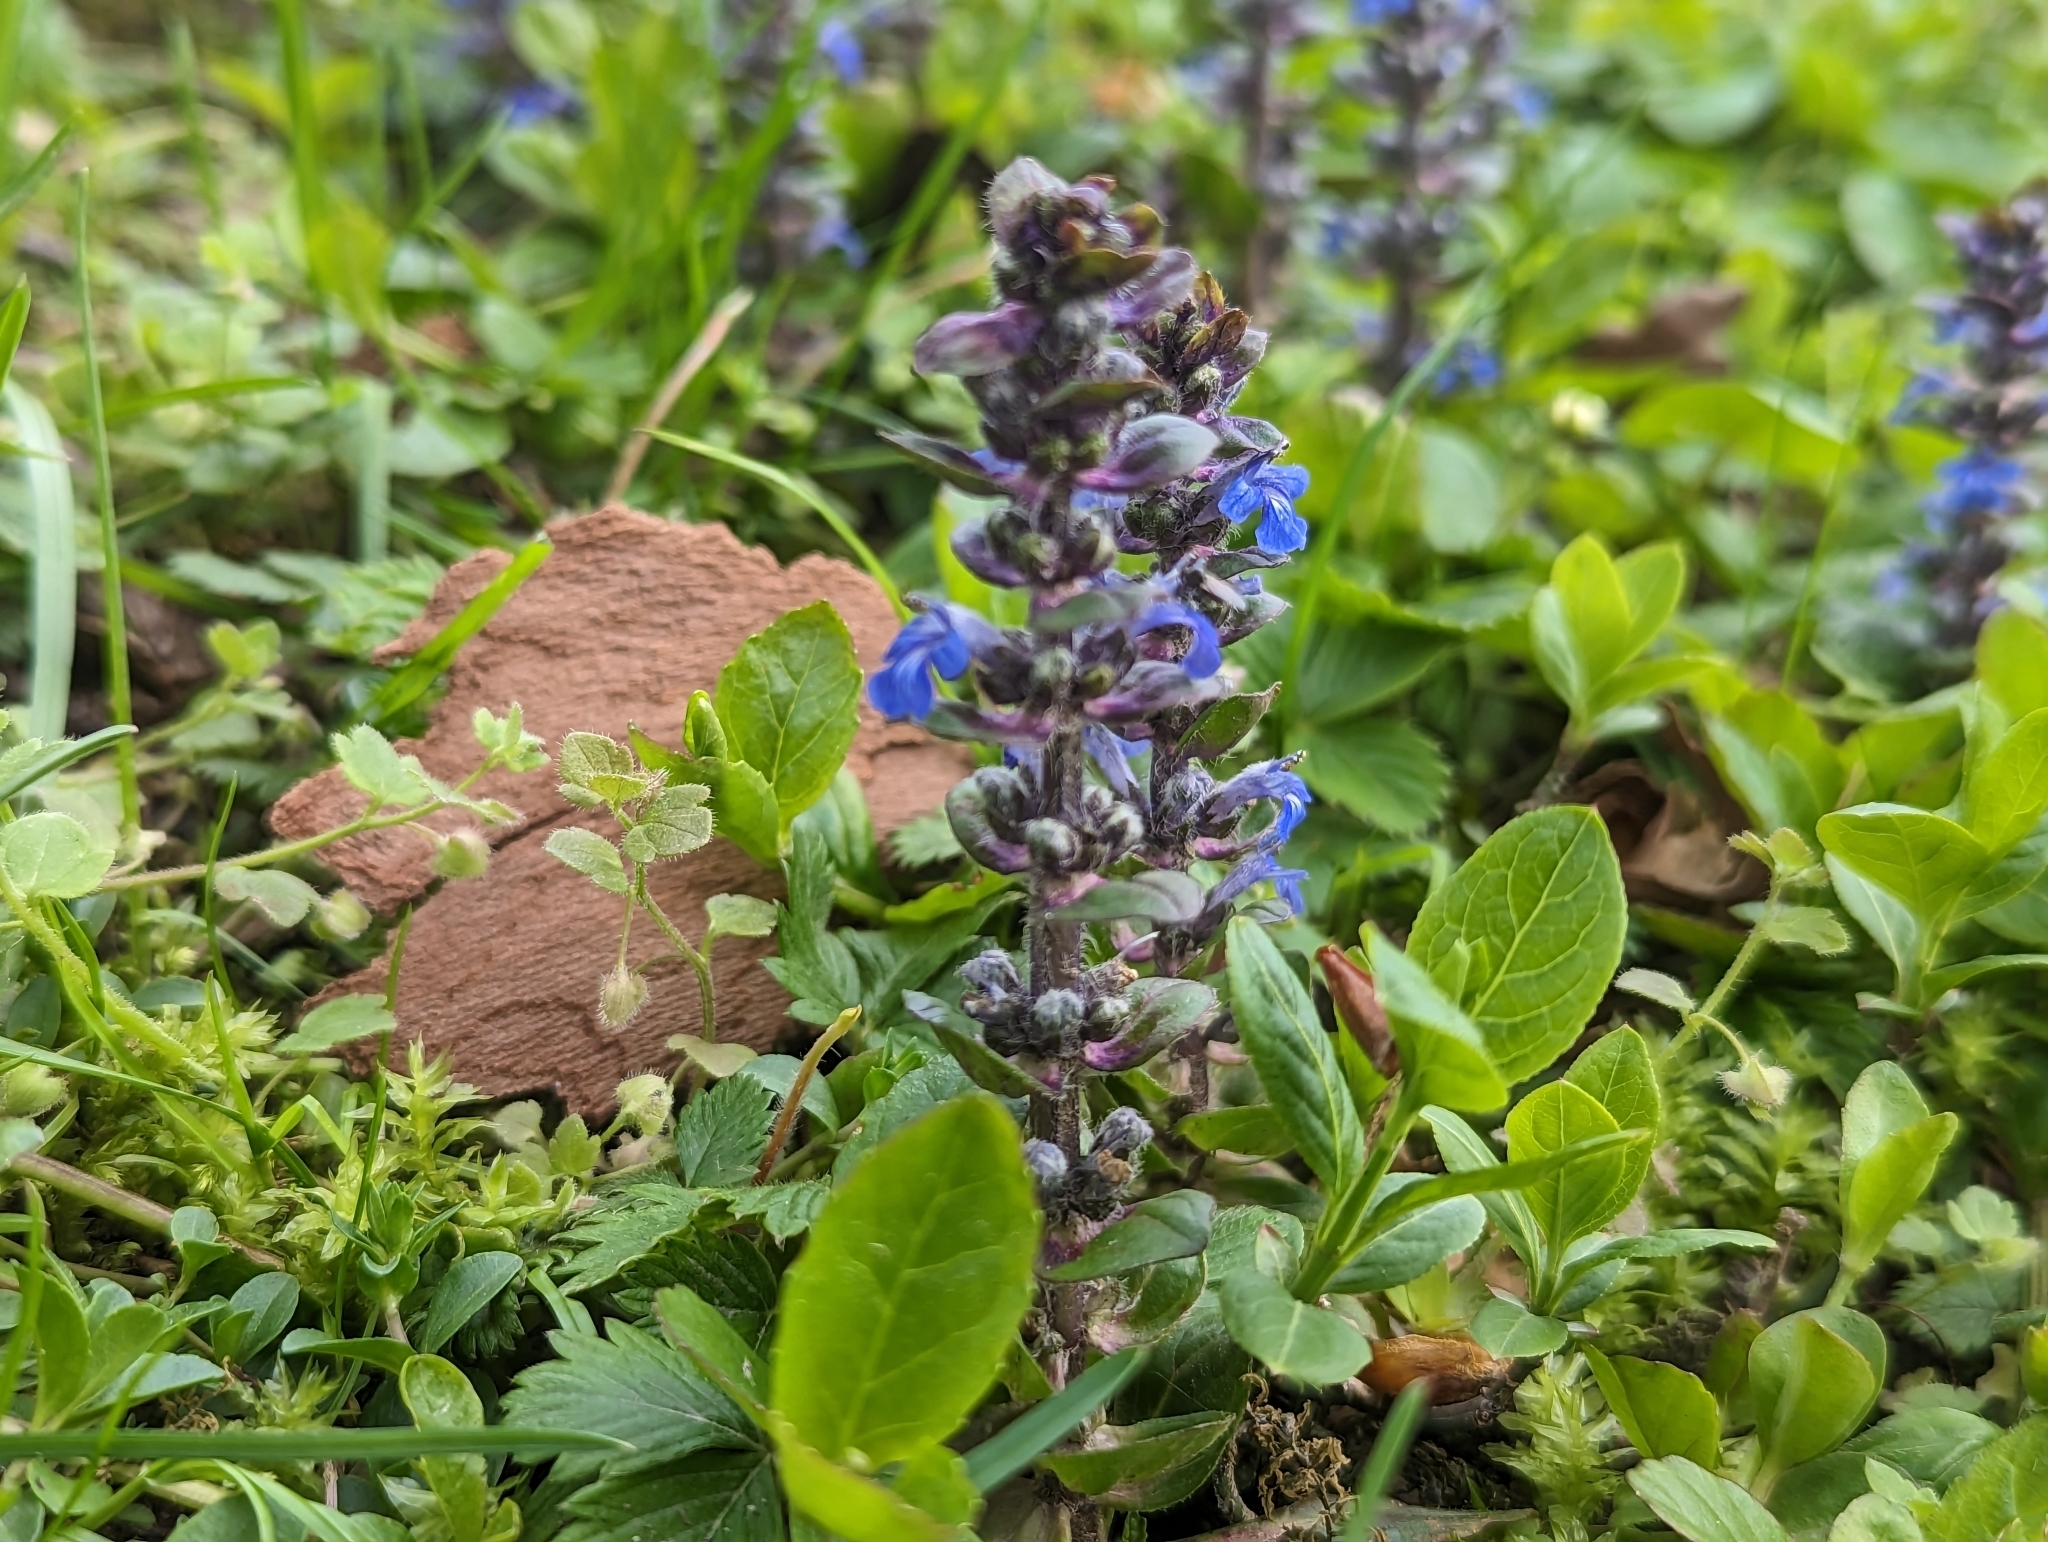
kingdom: Plantae
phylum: Tracheophyta
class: Magnoliopsida
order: Lamiales
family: Lamiaceae
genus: Ajuga
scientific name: Ajuga reptans
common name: Bugle
